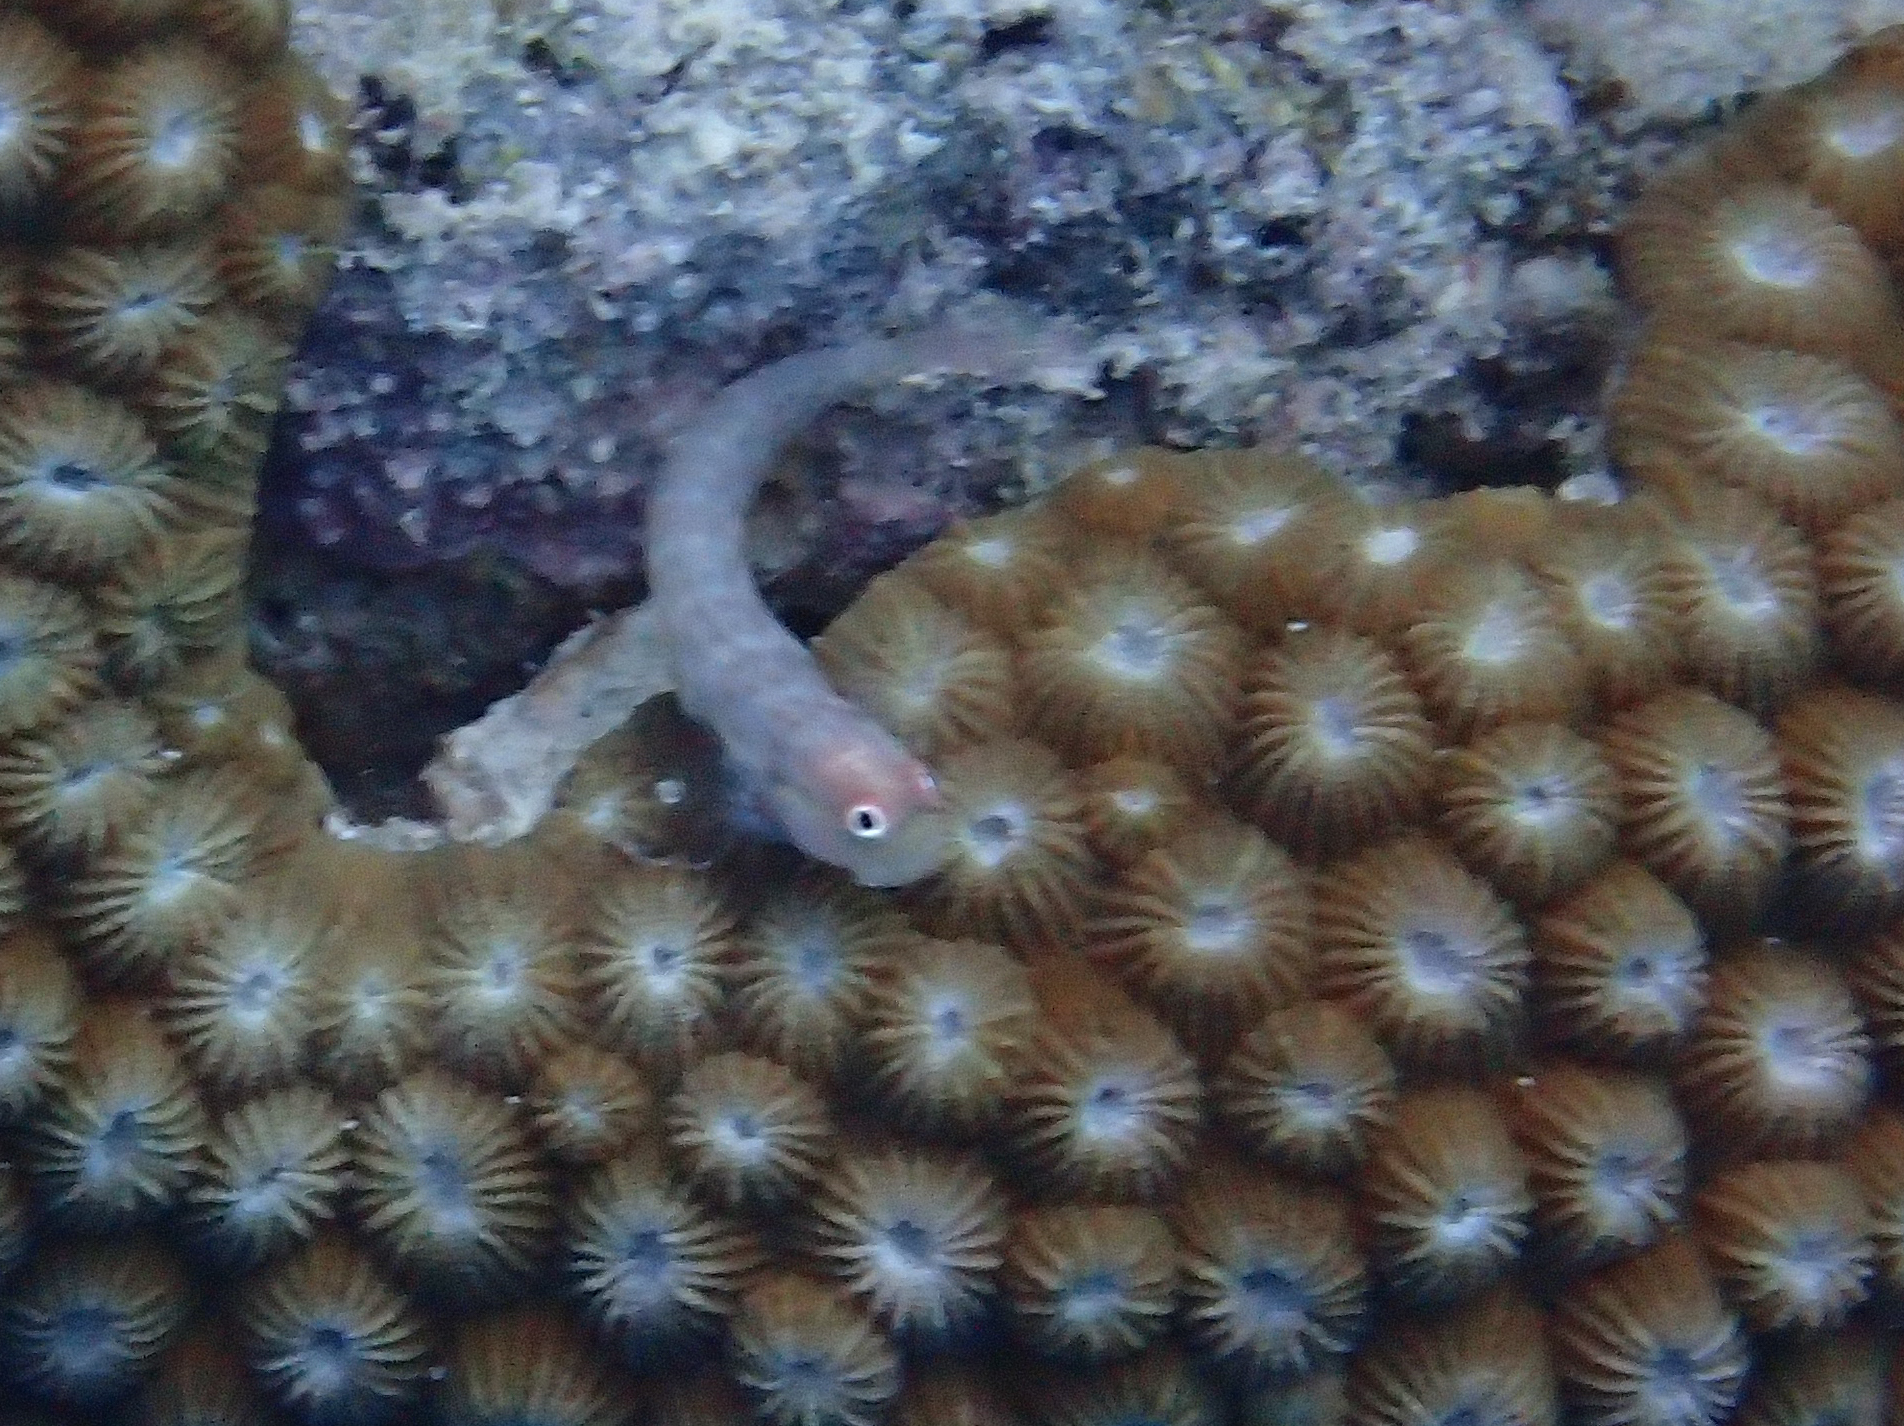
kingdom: Animalia
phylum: Chordata
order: Perciformes
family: Blenniidae
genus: Ecsenius
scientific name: Ecsenius stictus
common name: Great barrier reef blenny
